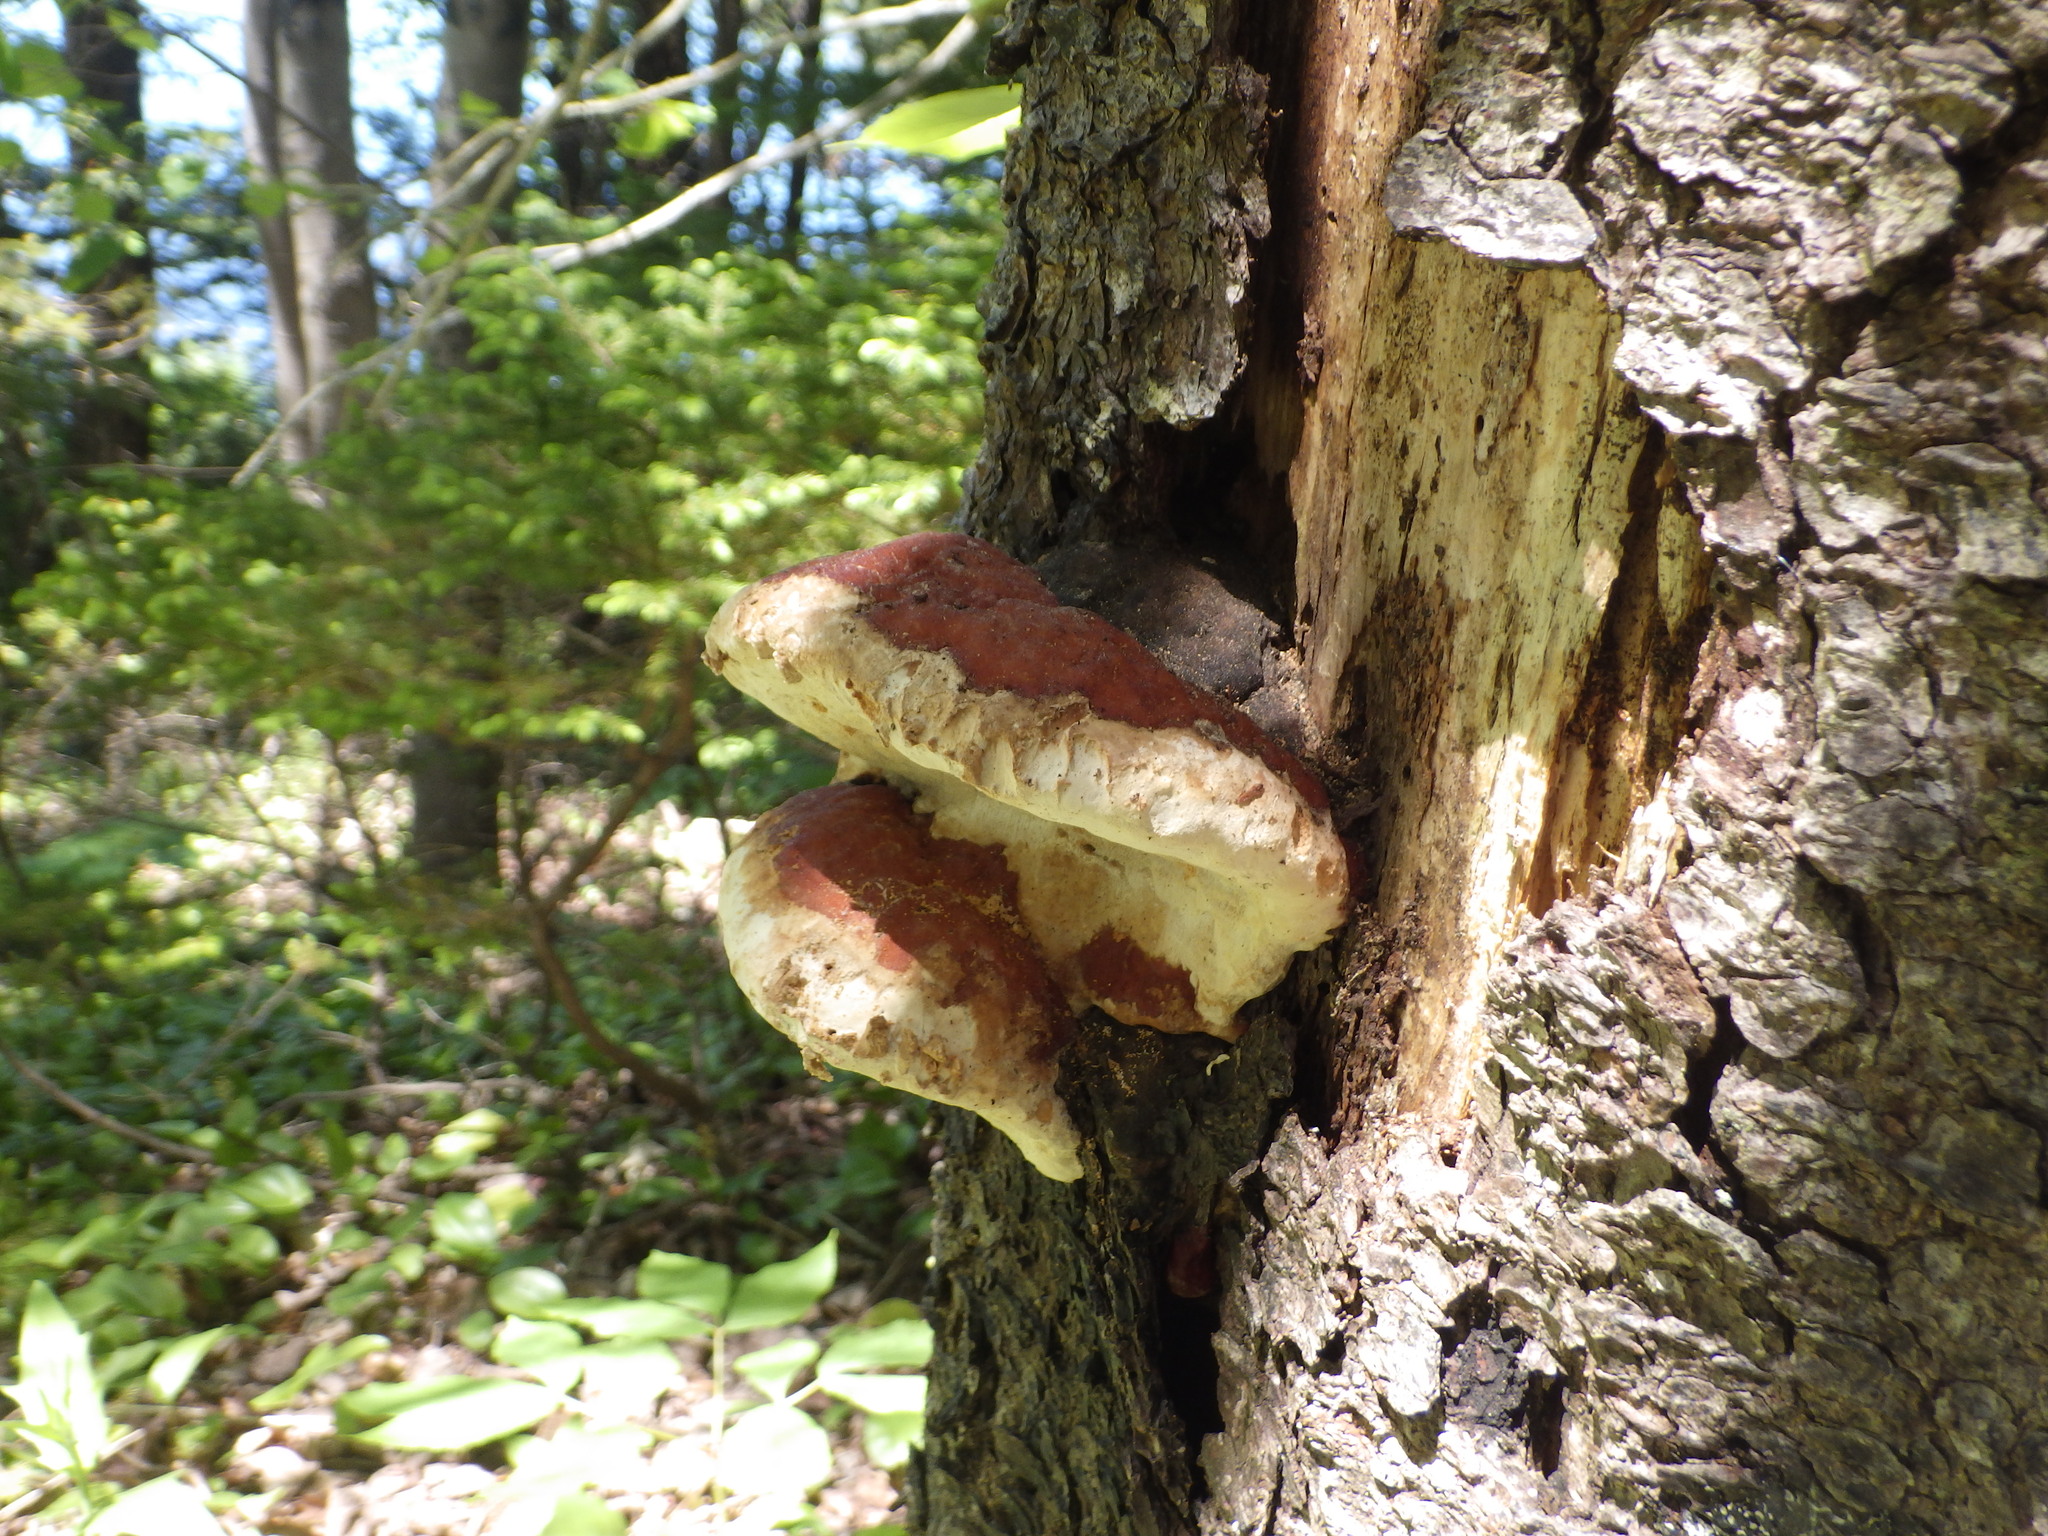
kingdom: Fungi
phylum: Basidiomycota
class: Agaricomycetes
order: Polyporales
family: Fomitopsidaceae
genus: Fomitopsis
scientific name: Fomitopsis mounceae
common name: Northern red belt
